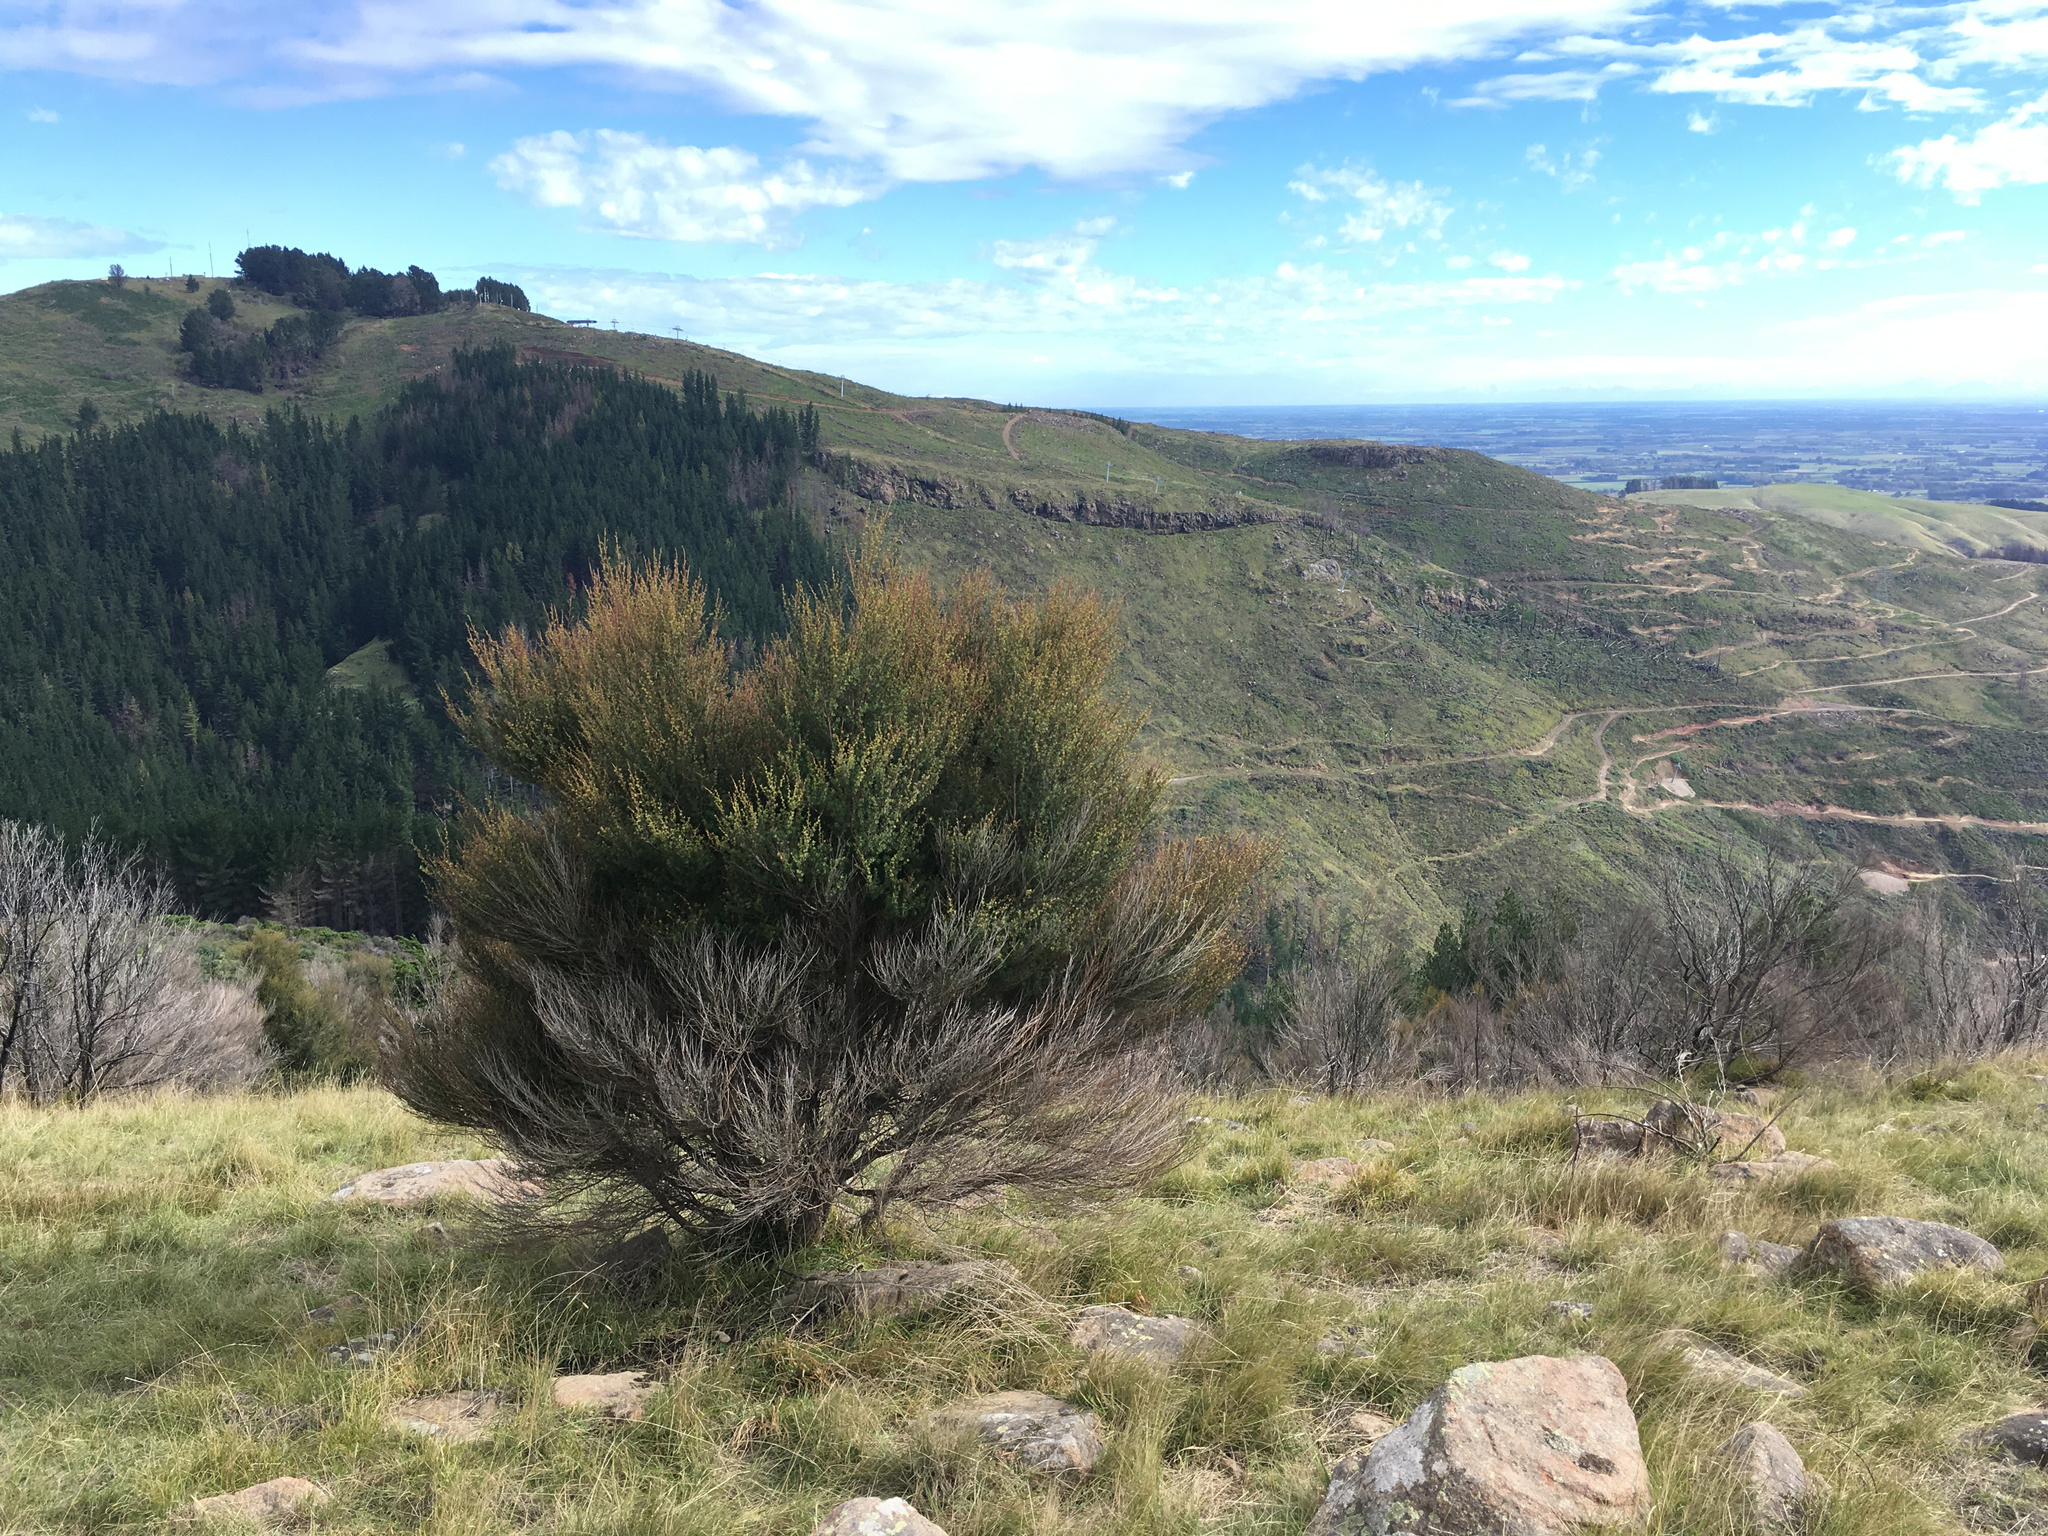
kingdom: Plantae
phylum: Tracheophyta
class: Magnoliopsida
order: Myrtales
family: Myrtaceae
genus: Kunzea
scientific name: Kunzea robusta
